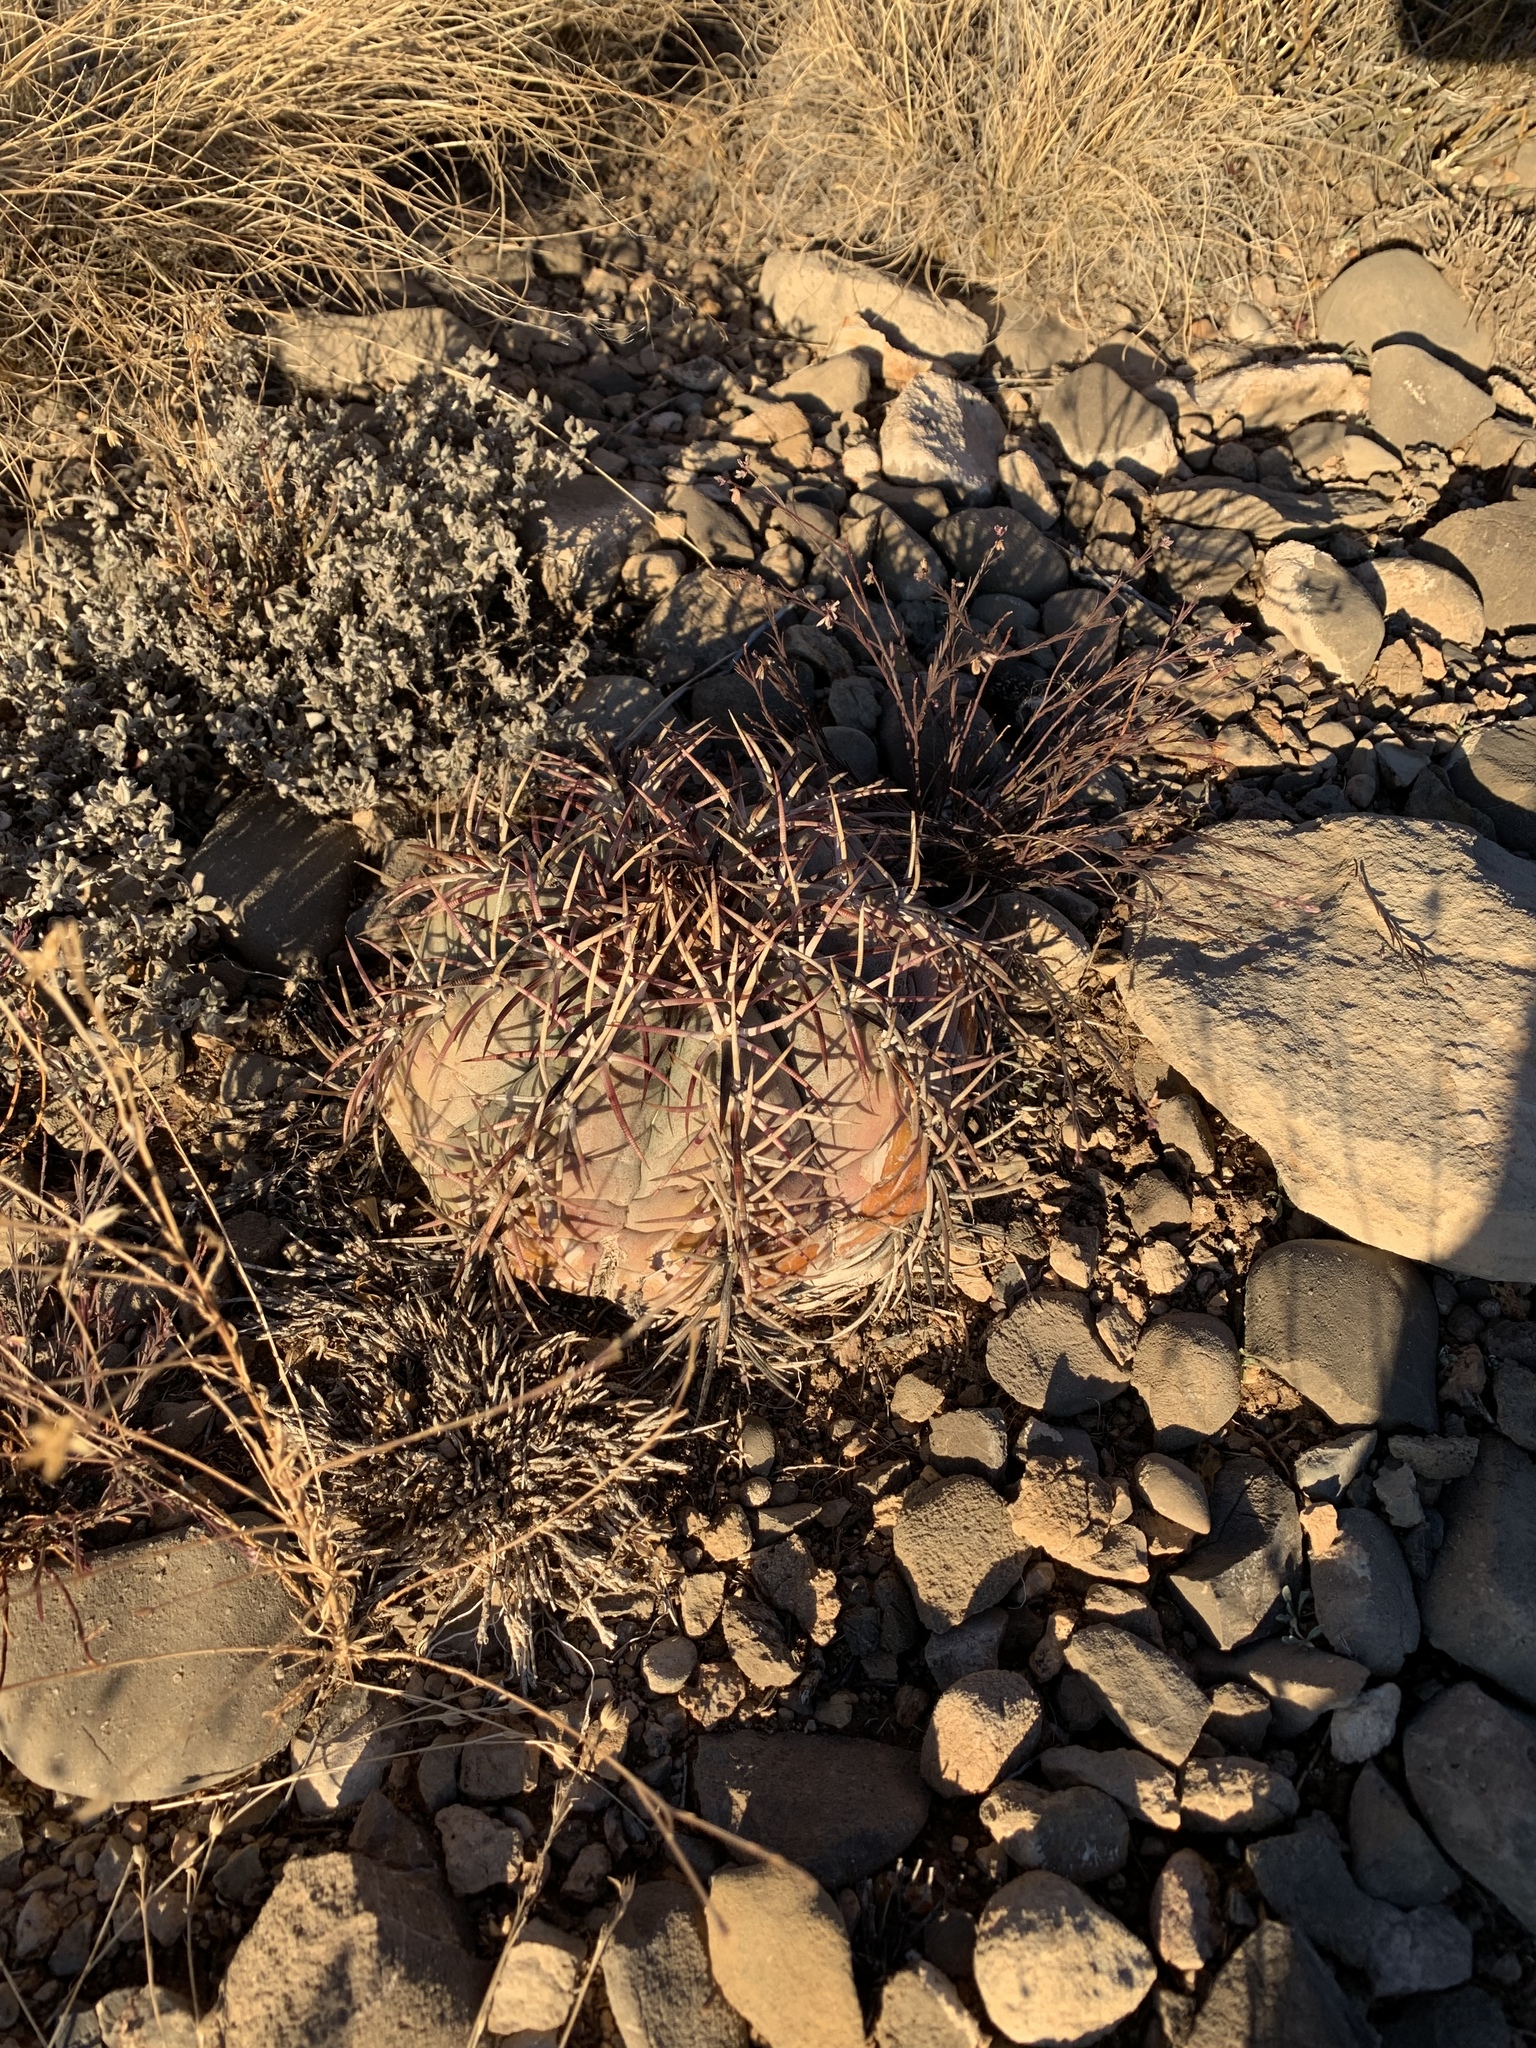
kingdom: Plantae
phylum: Tracheophyta
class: Magnoliopsida
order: Caryophyllales
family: Cactaceae
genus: Echinocactus
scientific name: Echinocactus horizonthalonius
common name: Devilshead
